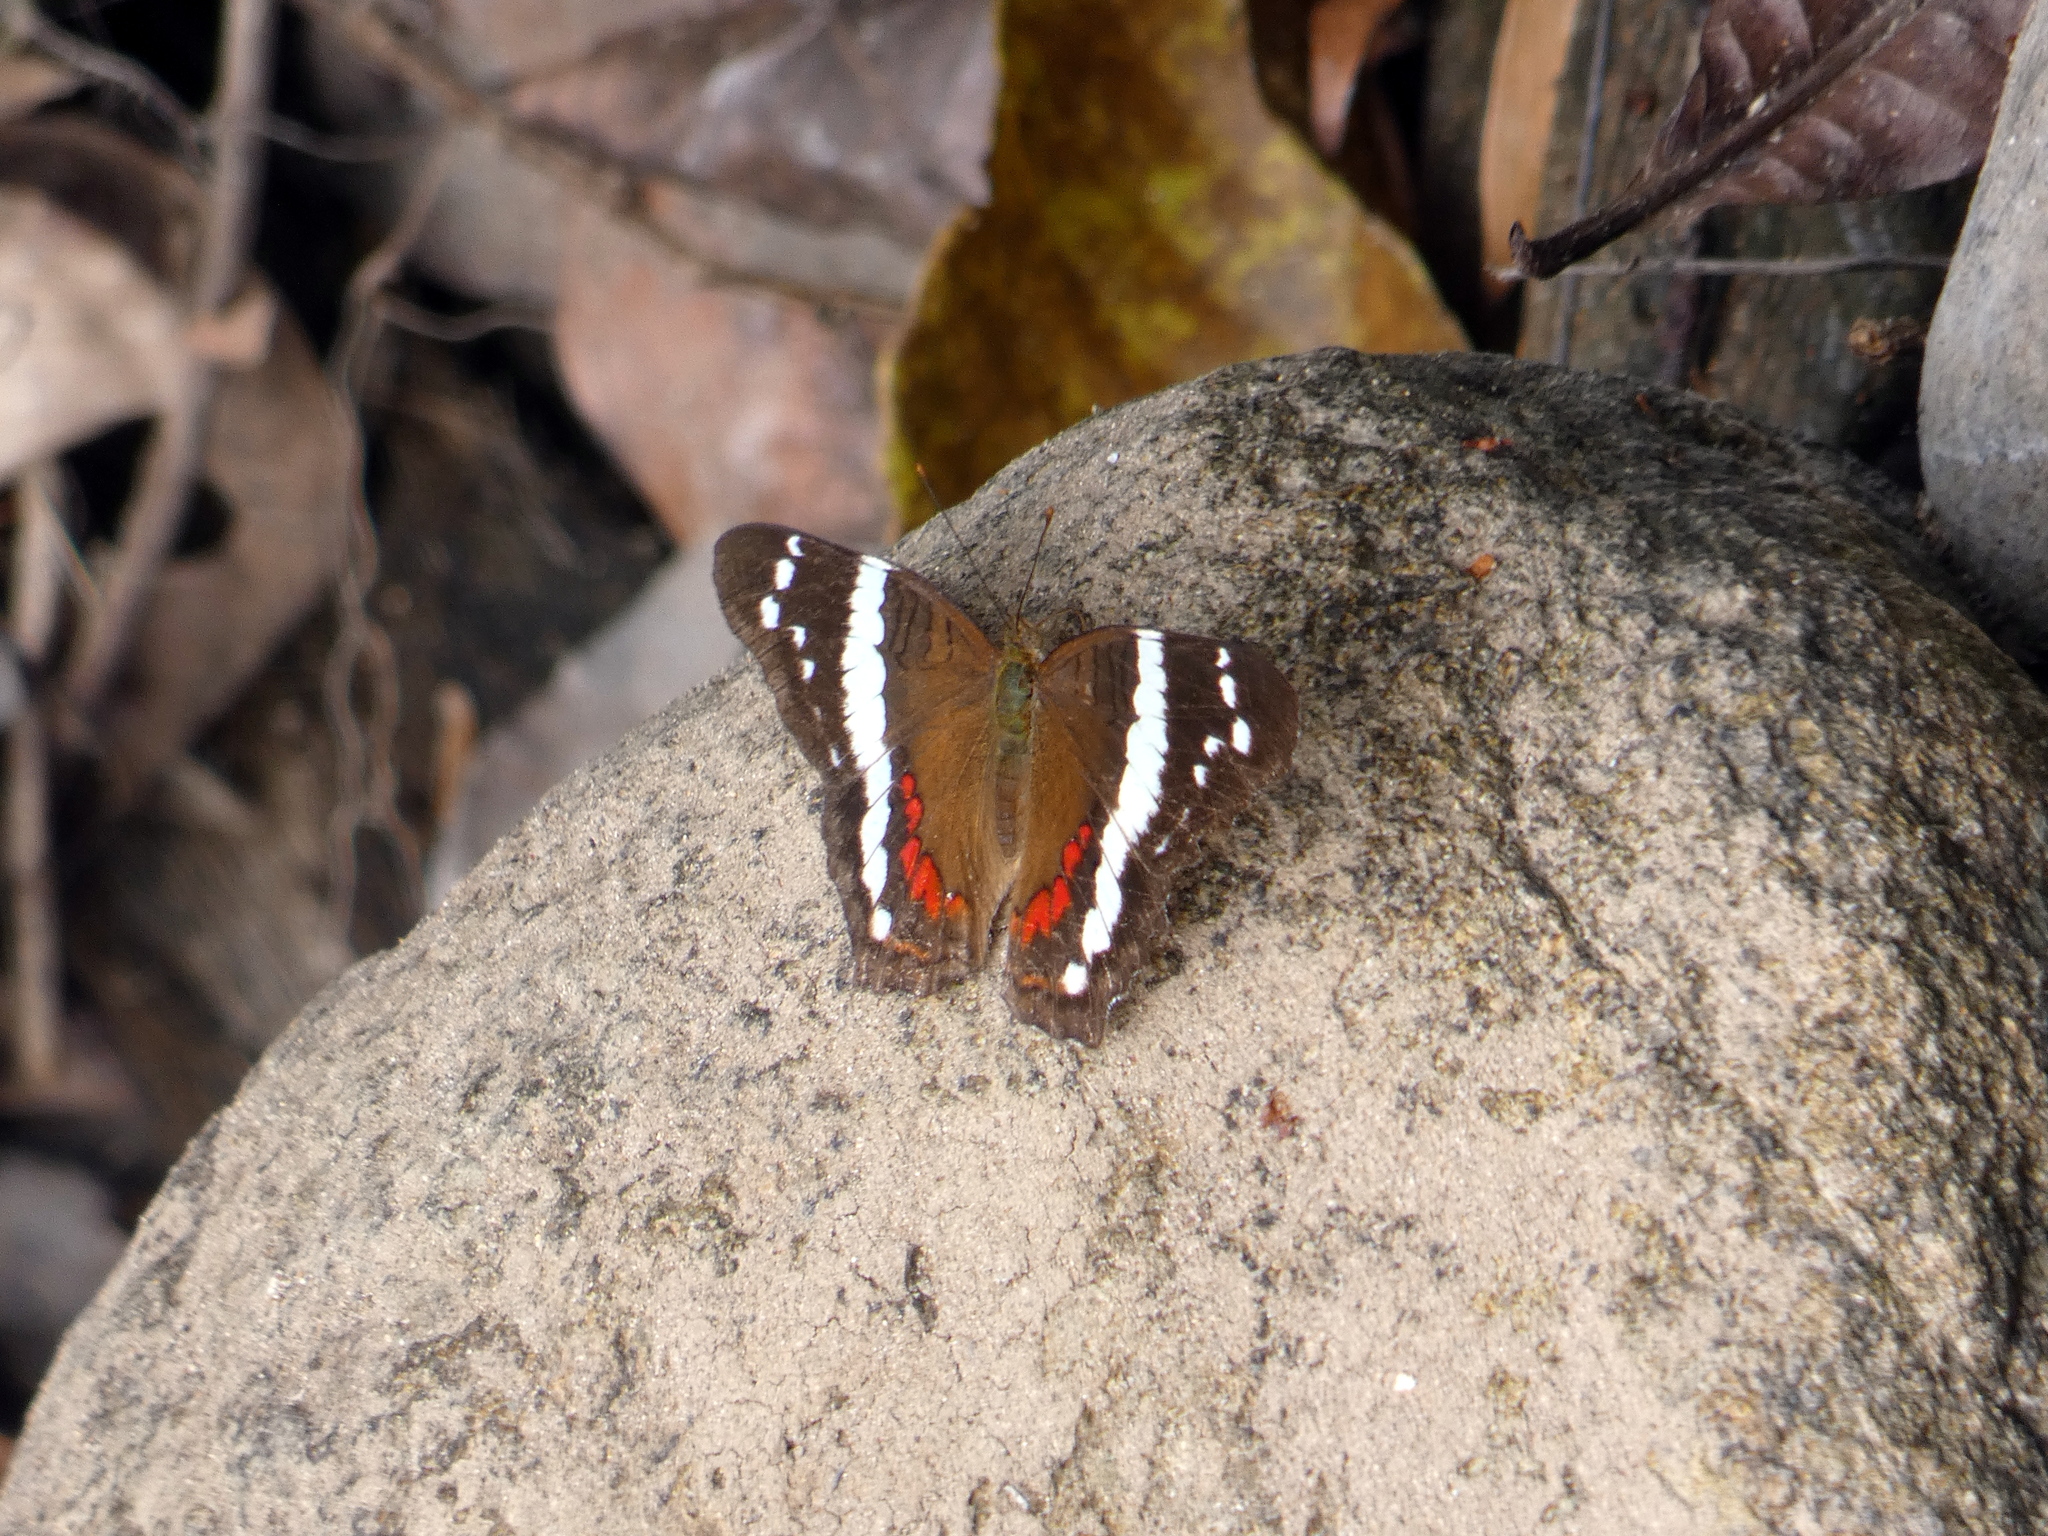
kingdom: Animalia
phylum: Arthropoda
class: Insecta
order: Lepidoptera
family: Nymphalidae
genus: Anartia
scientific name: Anartia fatima
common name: Banded peacock
